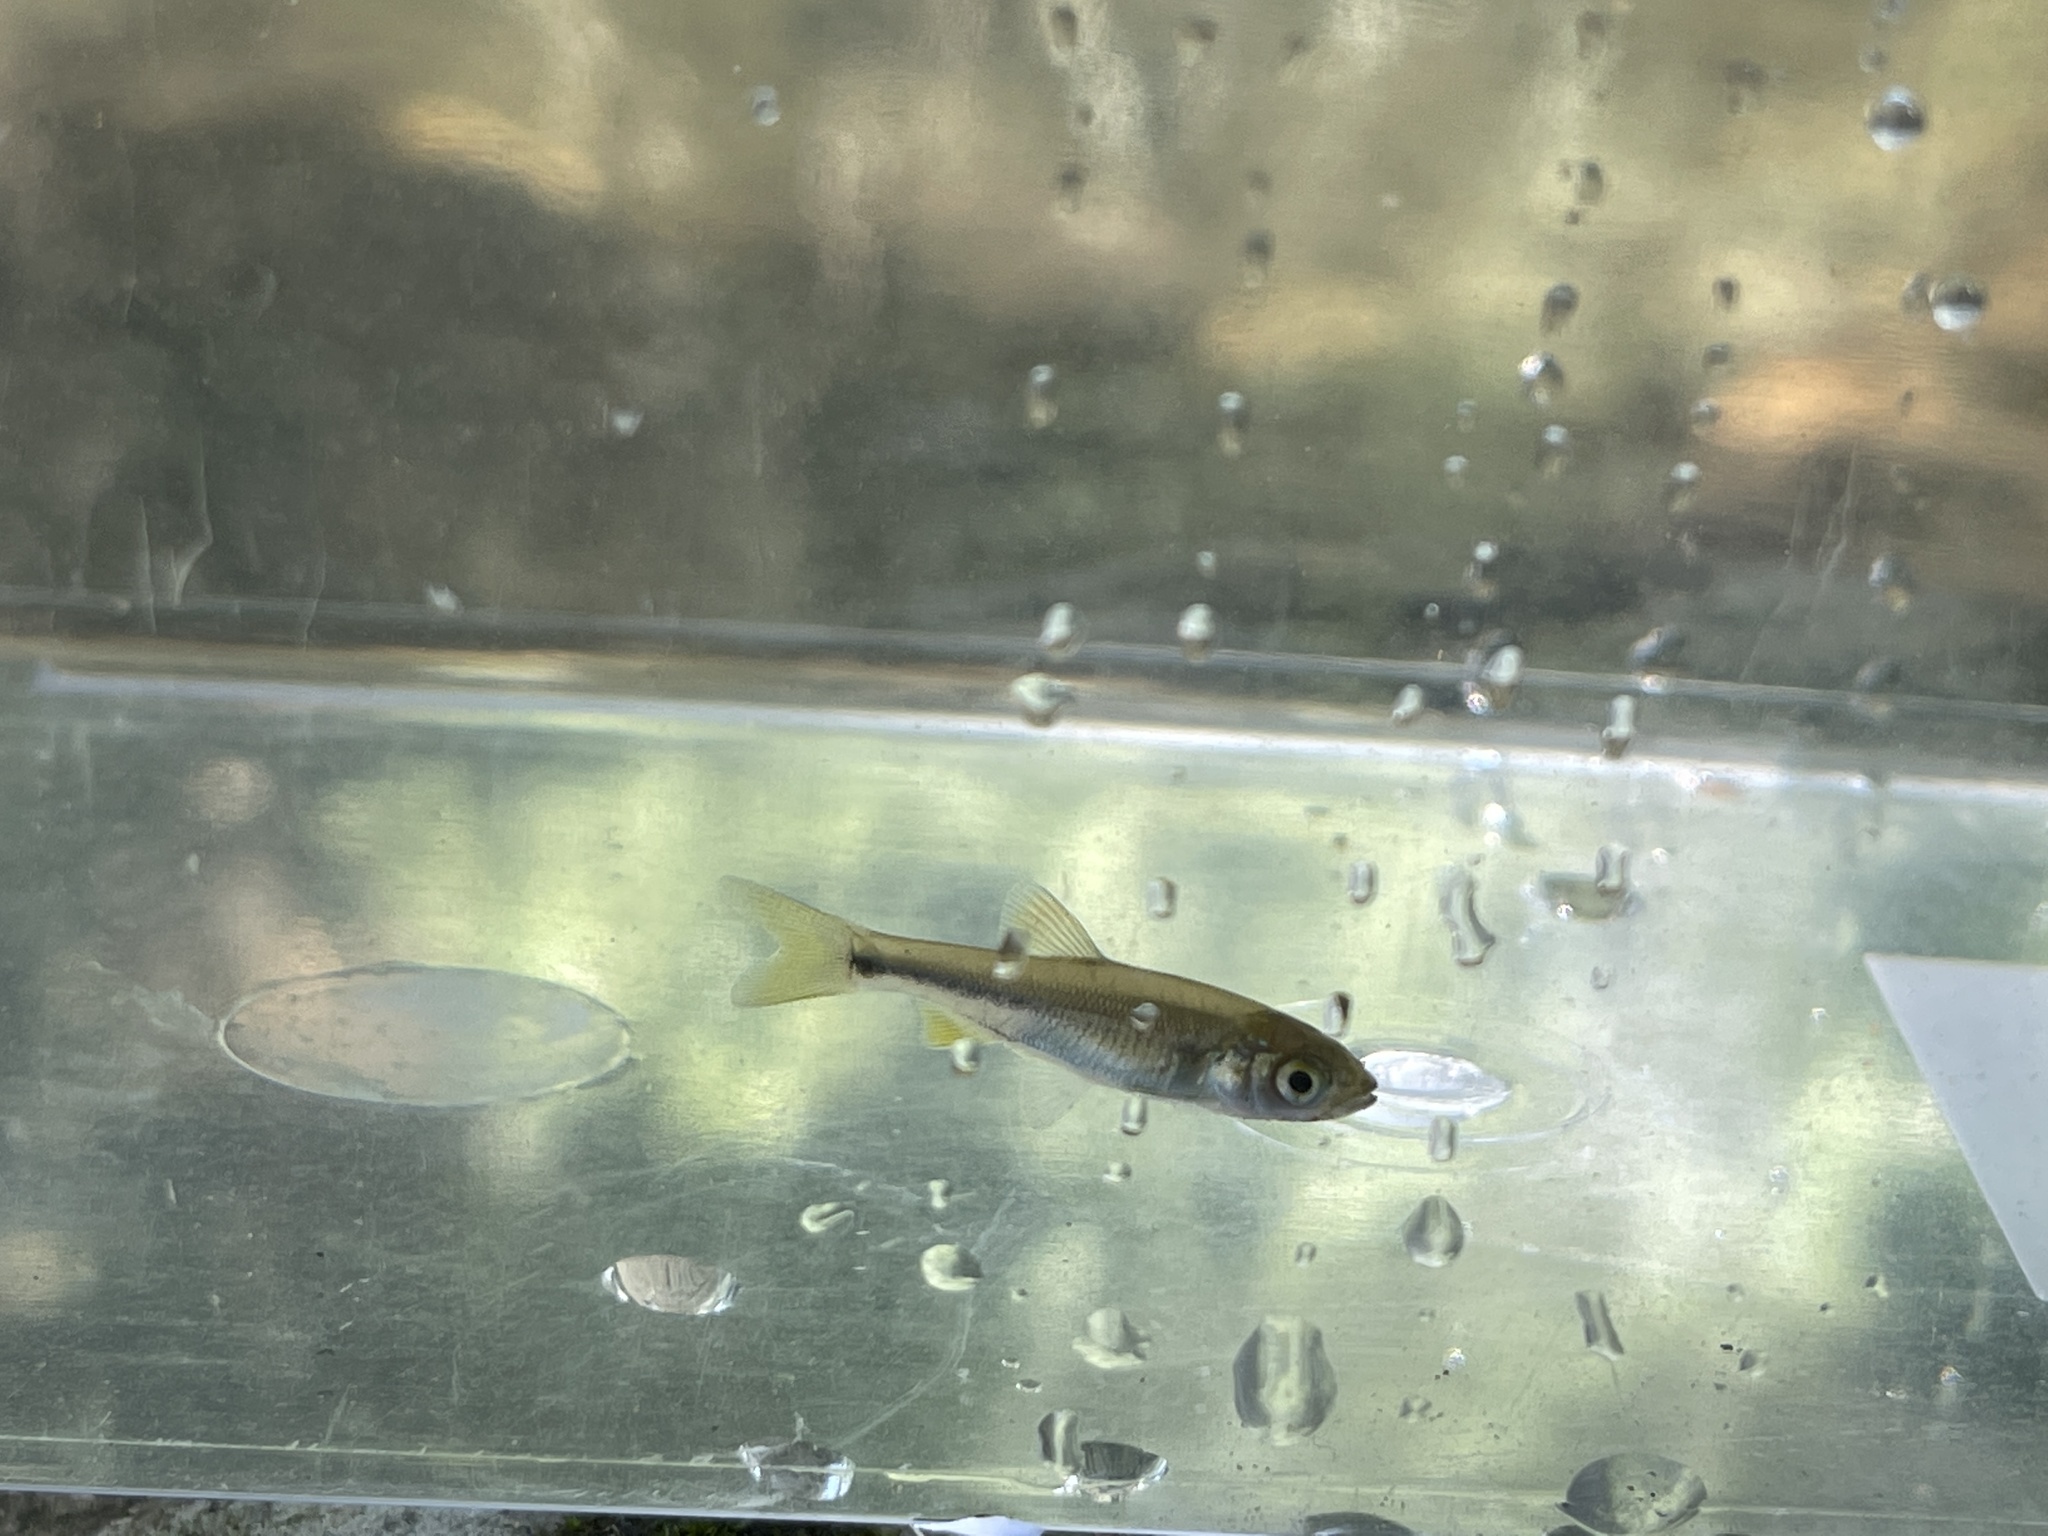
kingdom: Animalia
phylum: Chordata
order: Cypriniformes
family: Cyprinidae
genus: Candidia
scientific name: Candidia barbata
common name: Lake candidus dace
